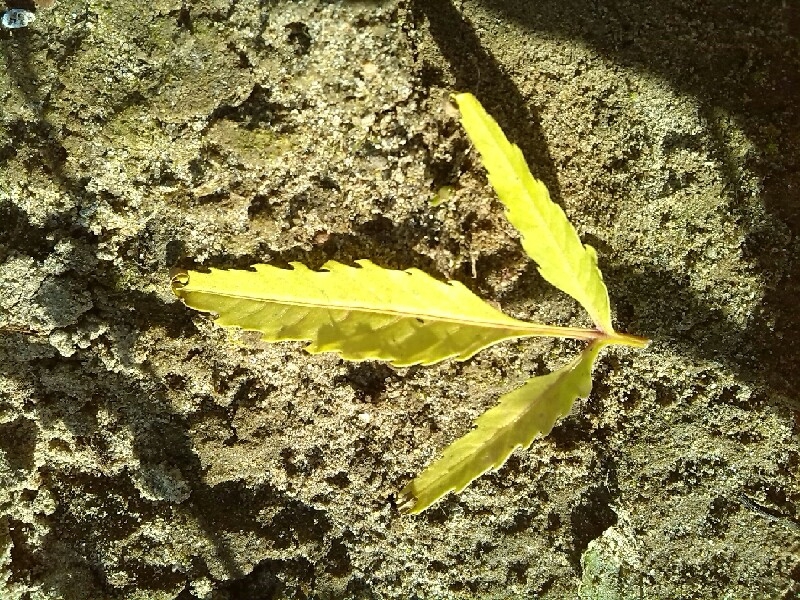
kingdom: Plantae
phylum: Tracheophyta
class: Magnoliopsida
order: Asterales
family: Asteraceae
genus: Bidens
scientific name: Bidens radiata
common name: Radiating bur-marigold
